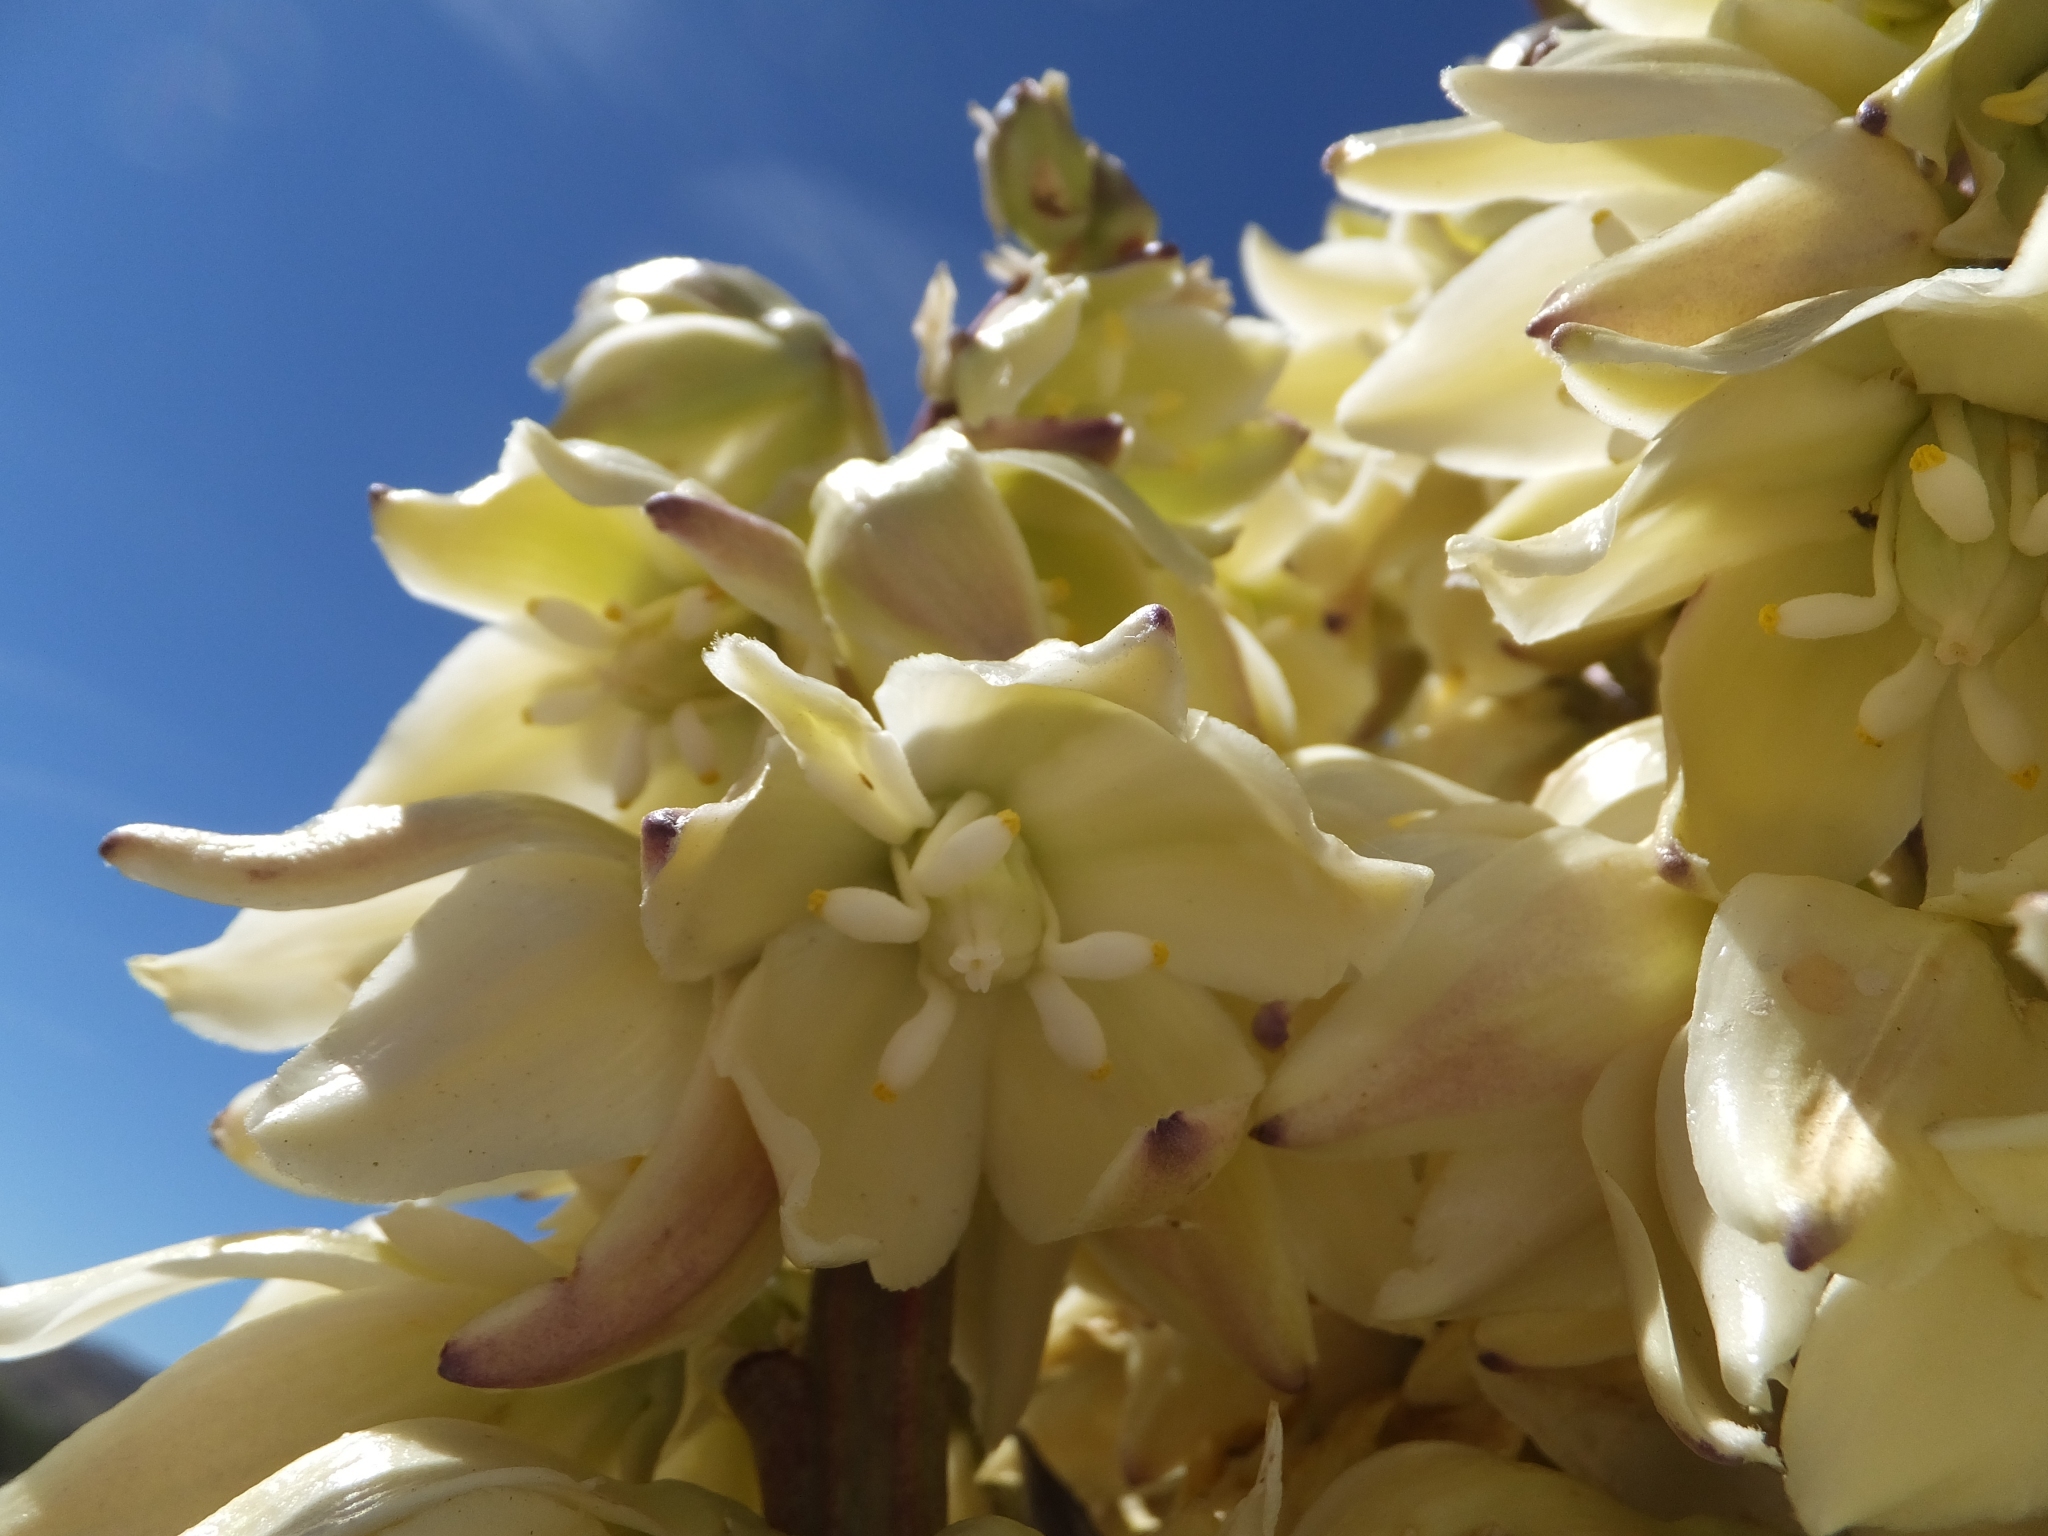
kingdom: Plantae
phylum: Tracheophyta
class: Liliopsida
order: Asparagales
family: Asparagaceae
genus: Yucca
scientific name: Yucca schidigera
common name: Mojave yucca
